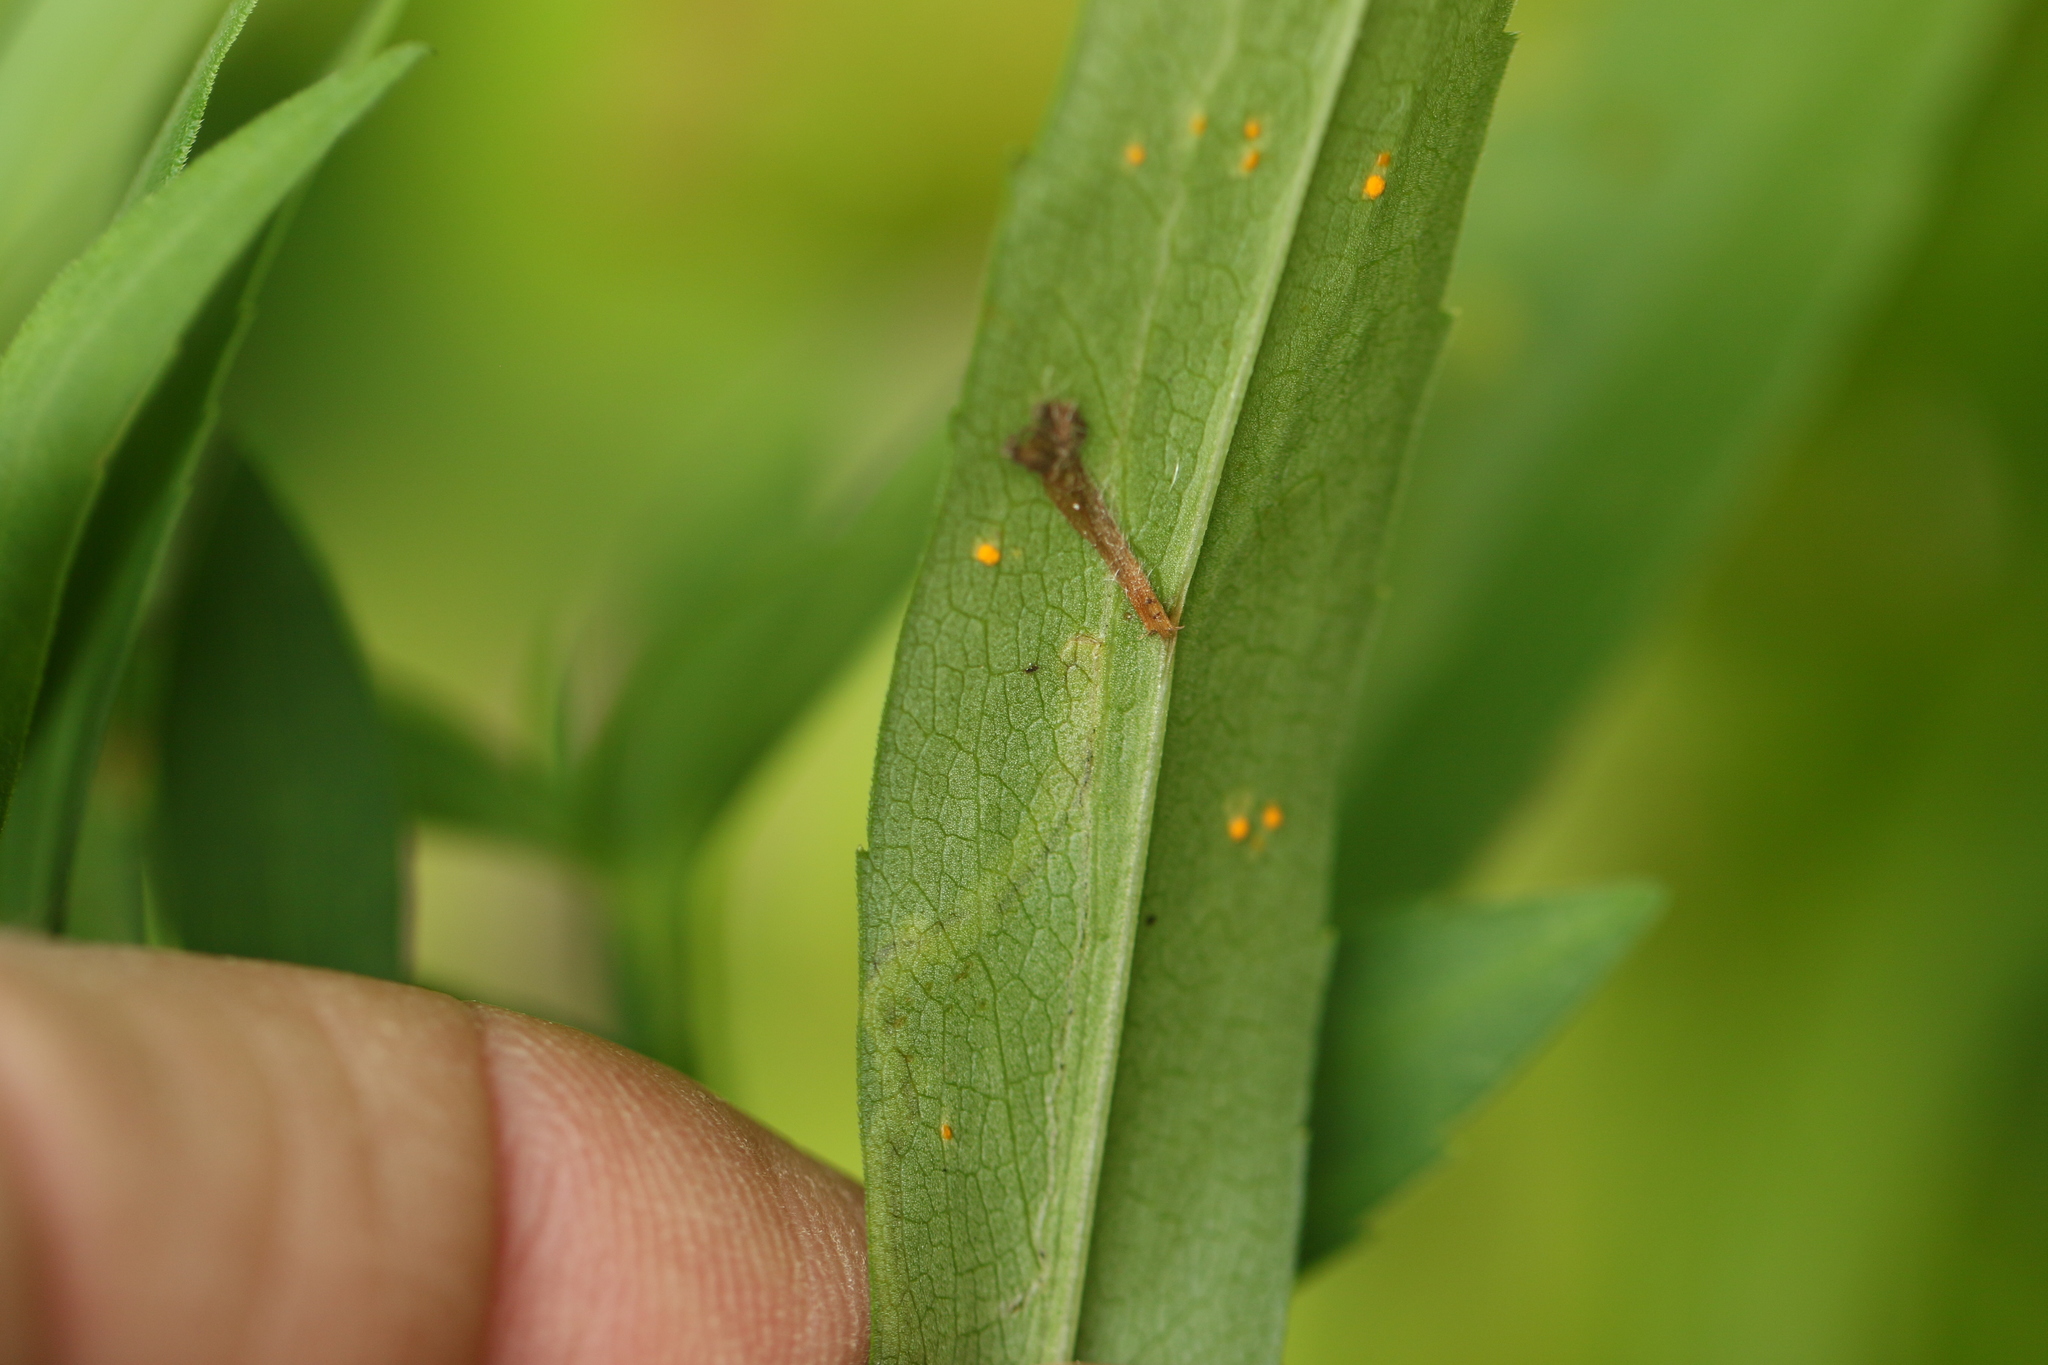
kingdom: Animalia
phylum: Arthropoda
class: Insecta
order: Diptera
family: Agromyzidae
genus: Liriomyza
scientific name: Liriomyza eupatorii
